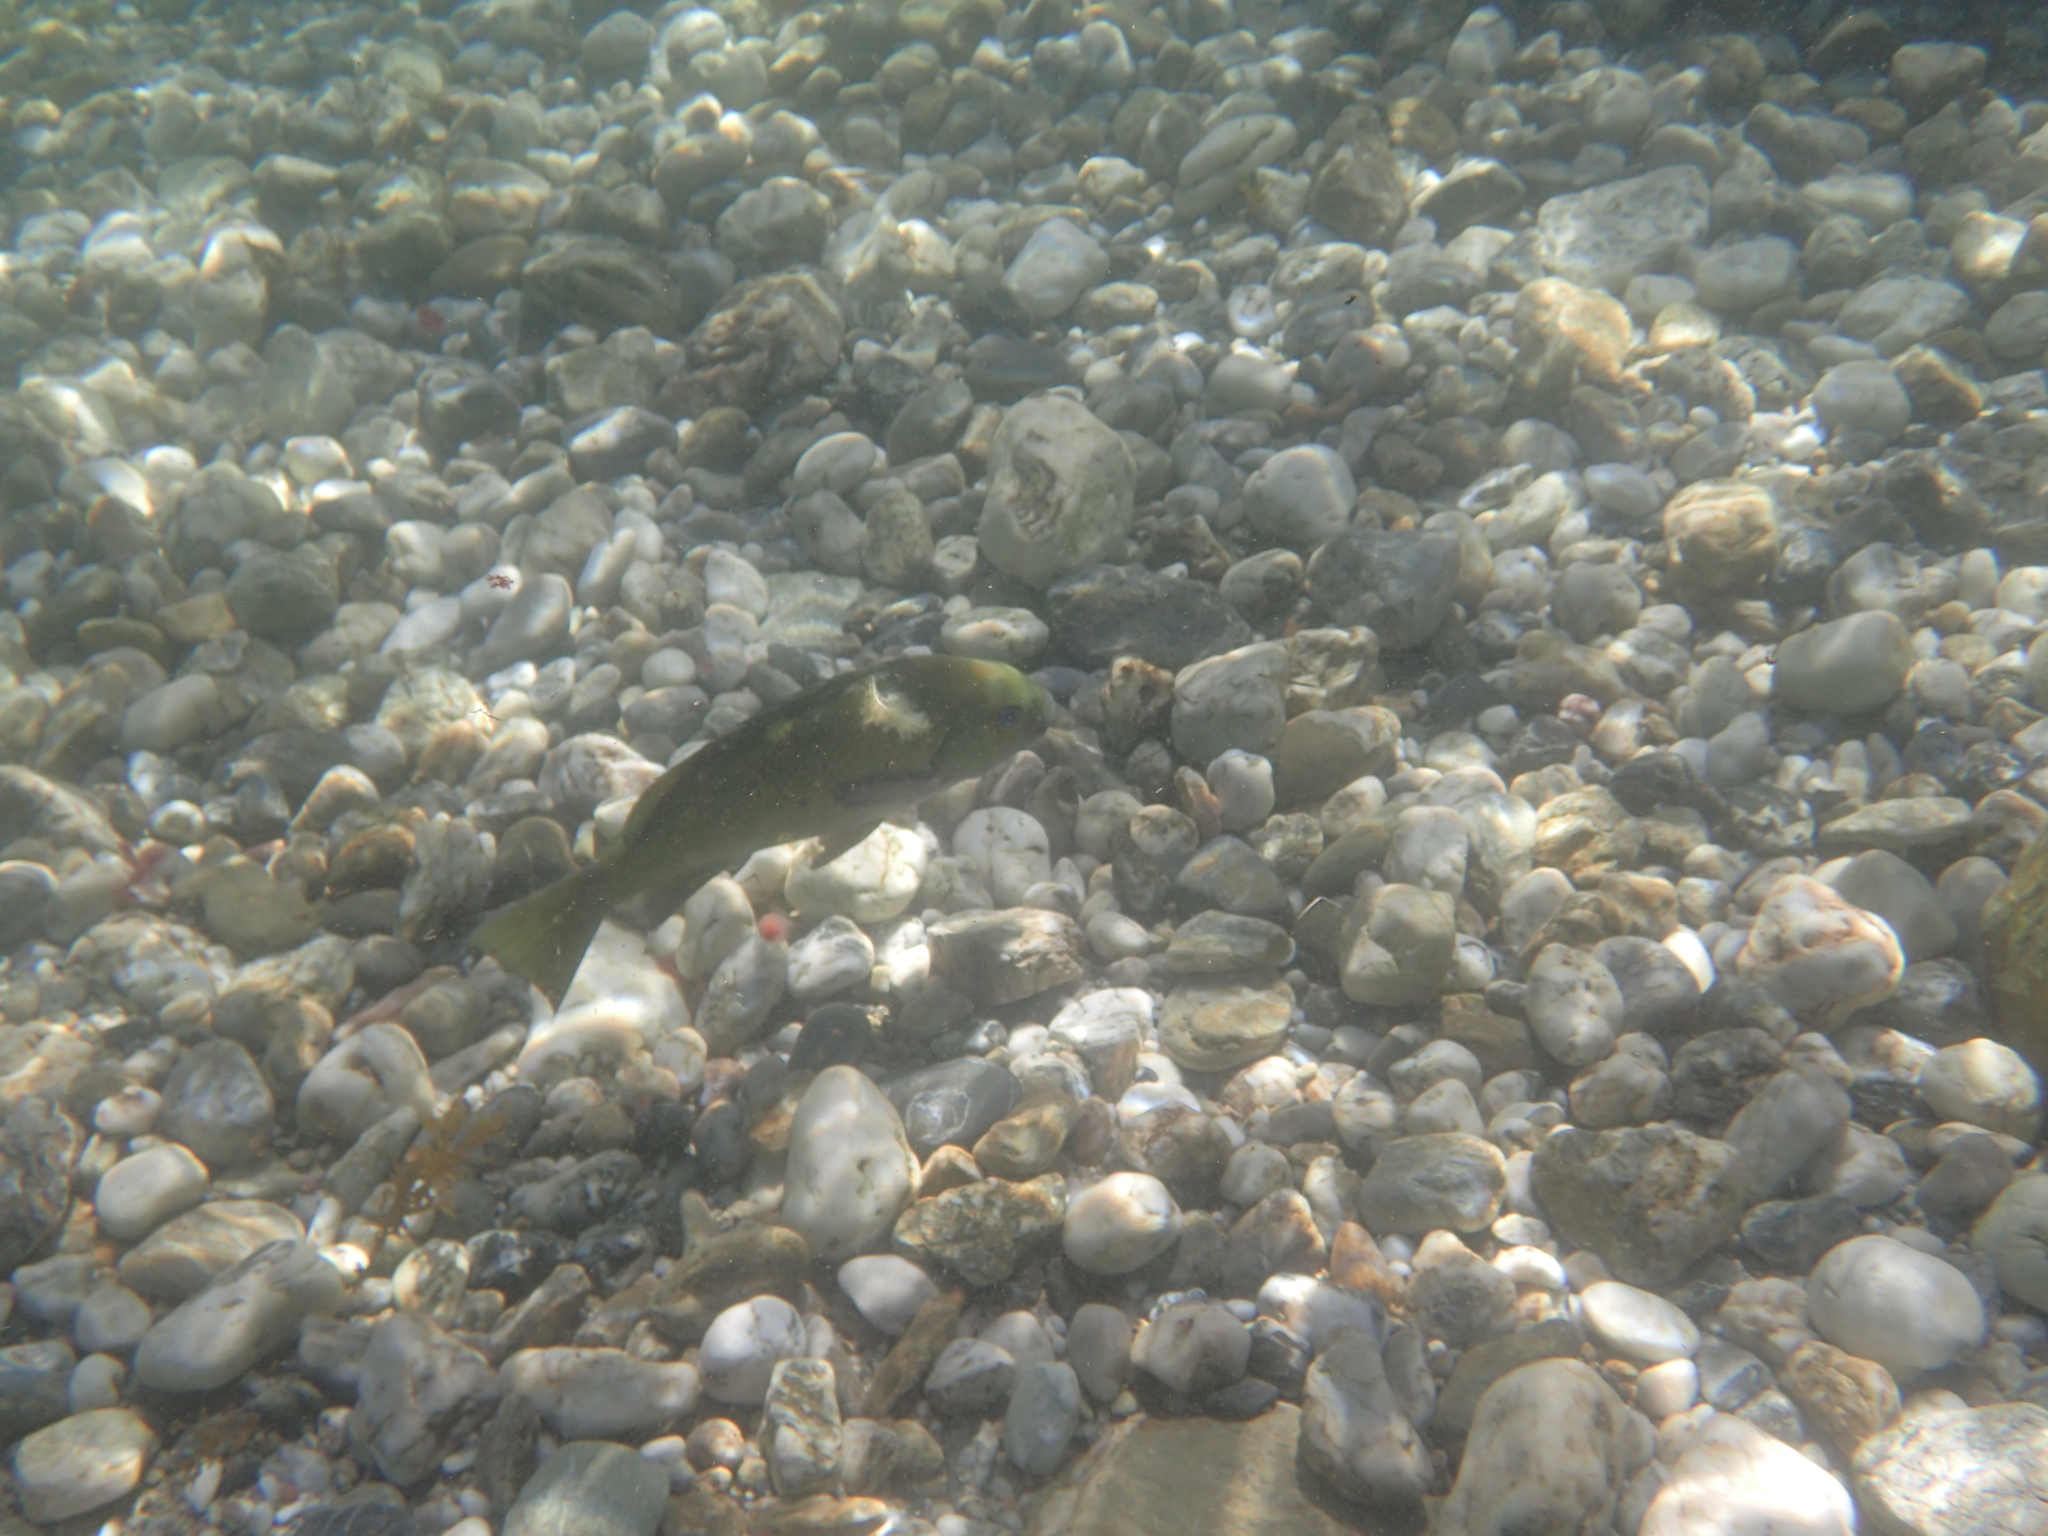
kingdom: Animalia
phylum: Chordata
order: Perciformes
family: Kyphosidae
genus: Girella
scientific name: Girella nigricans
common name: Opaleye
